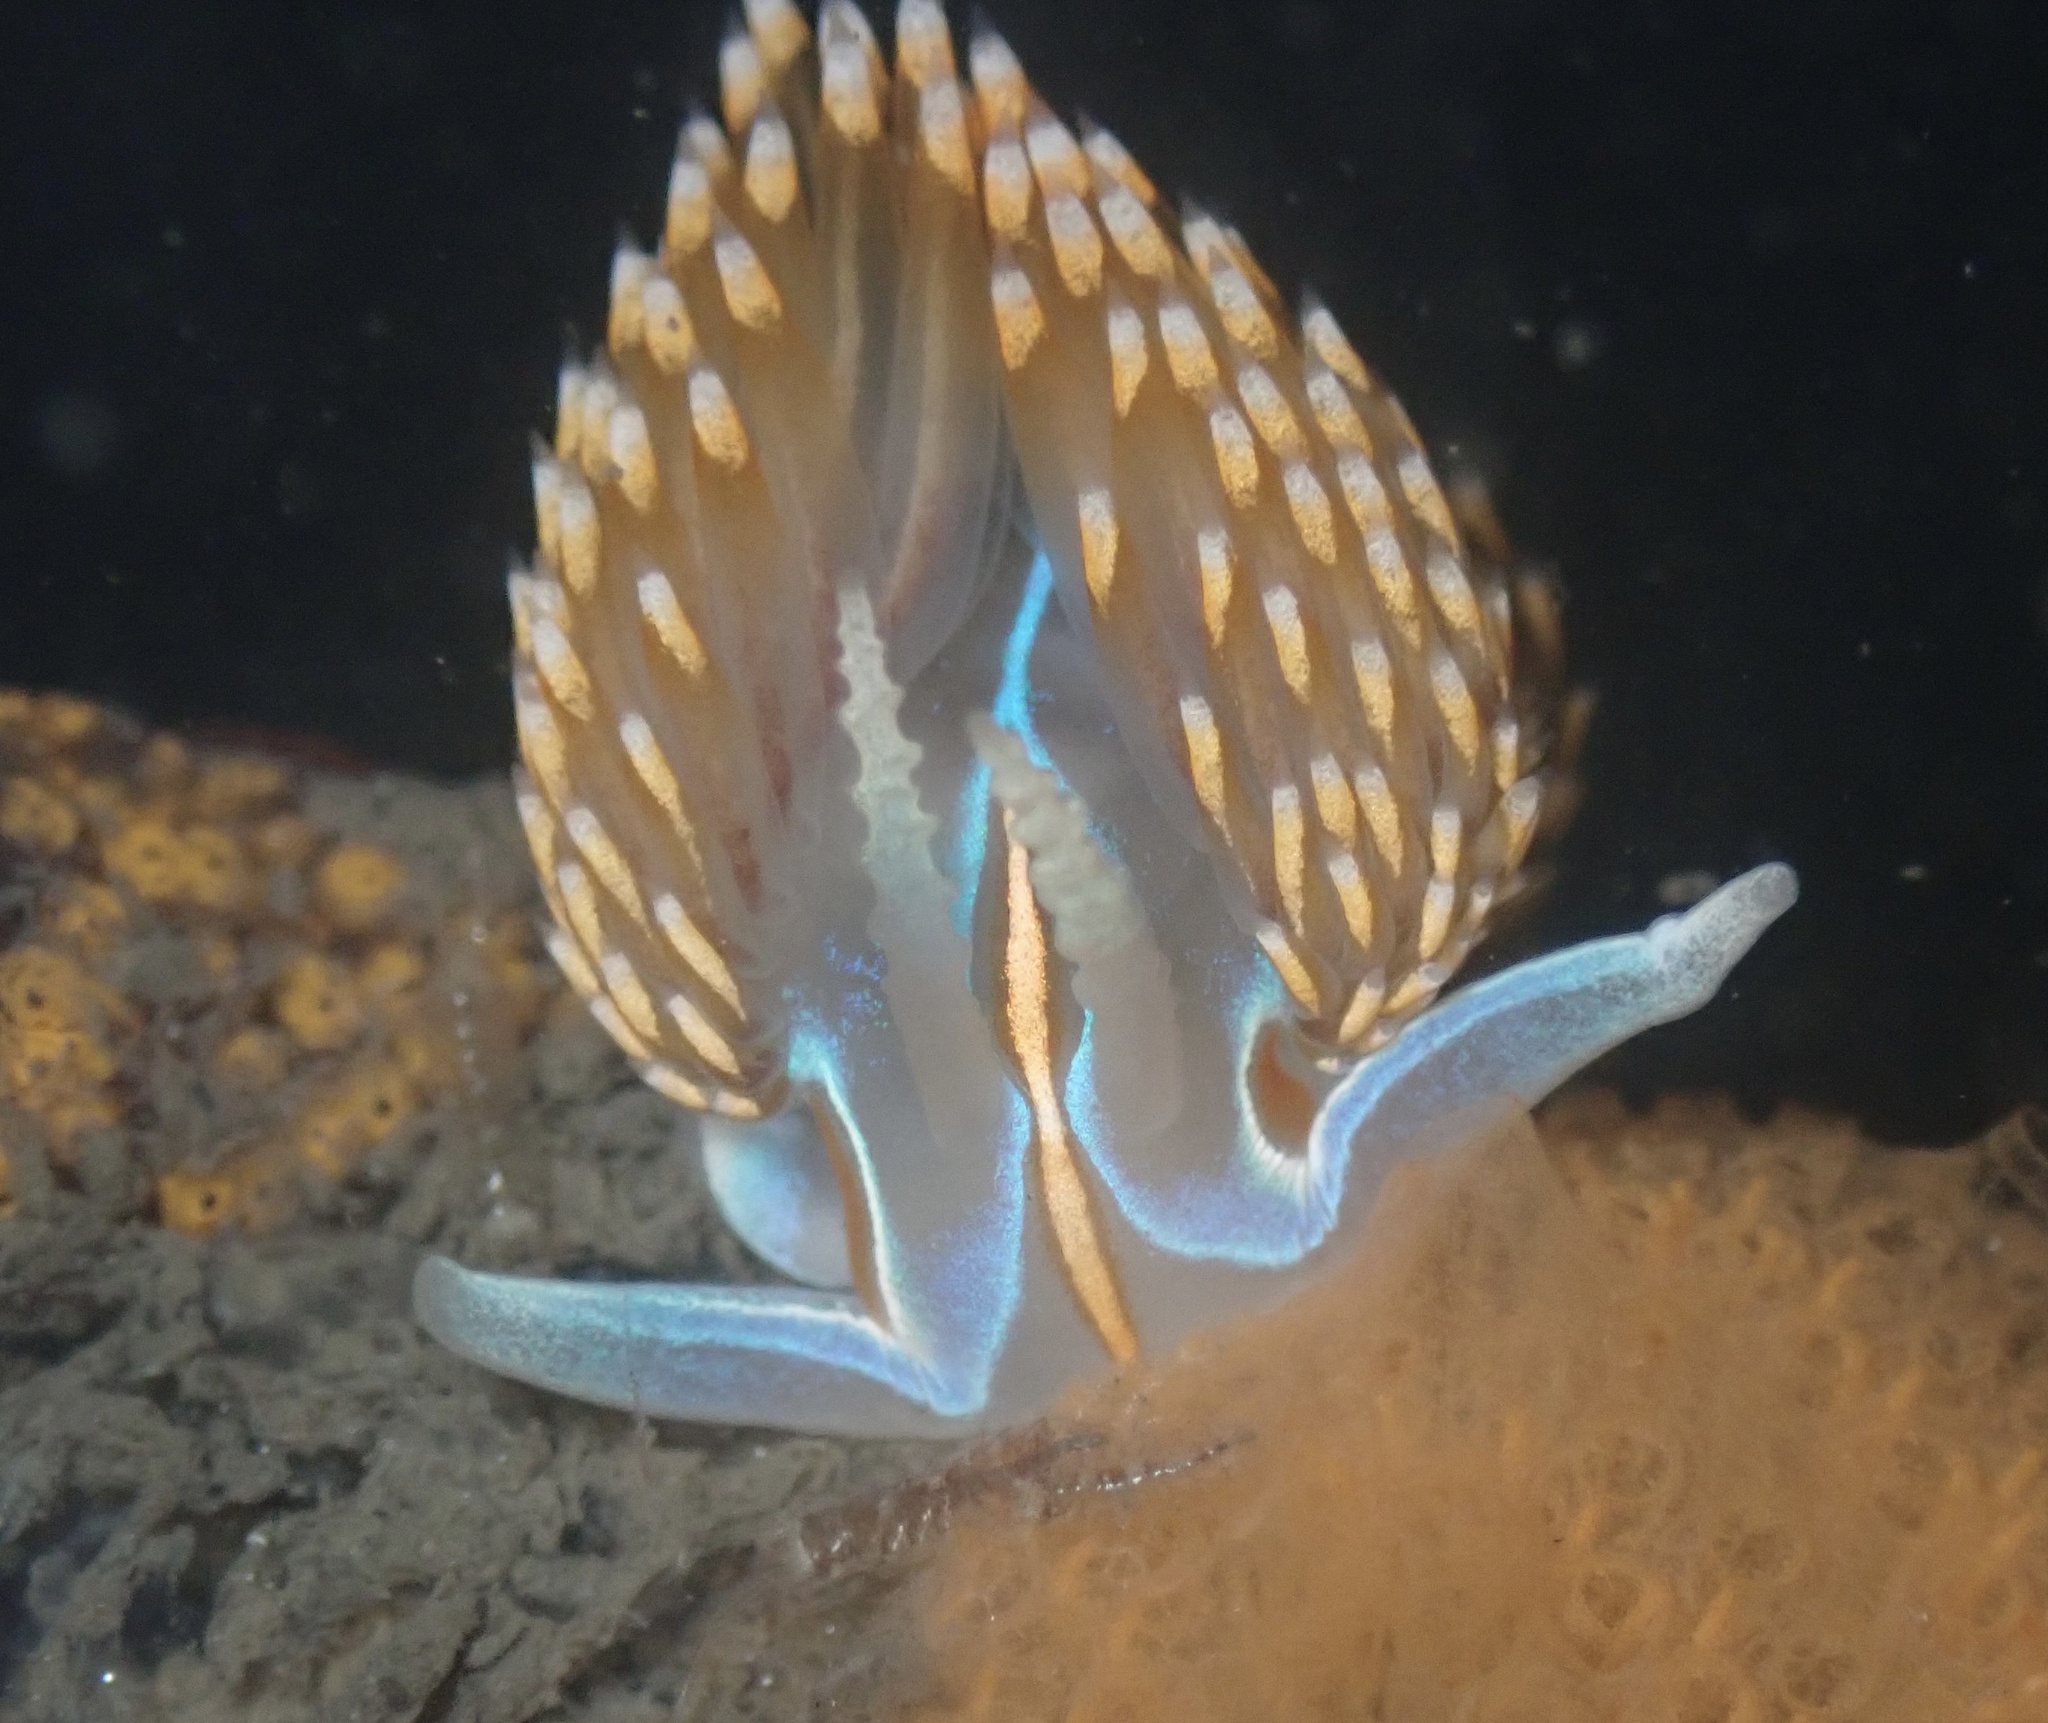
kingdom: Animalia
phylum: Mollusca
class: Gastropoda
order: Nudibranchia
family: Myrrhinidae
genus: Hermissenda
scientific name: Hermissenda opalescens
